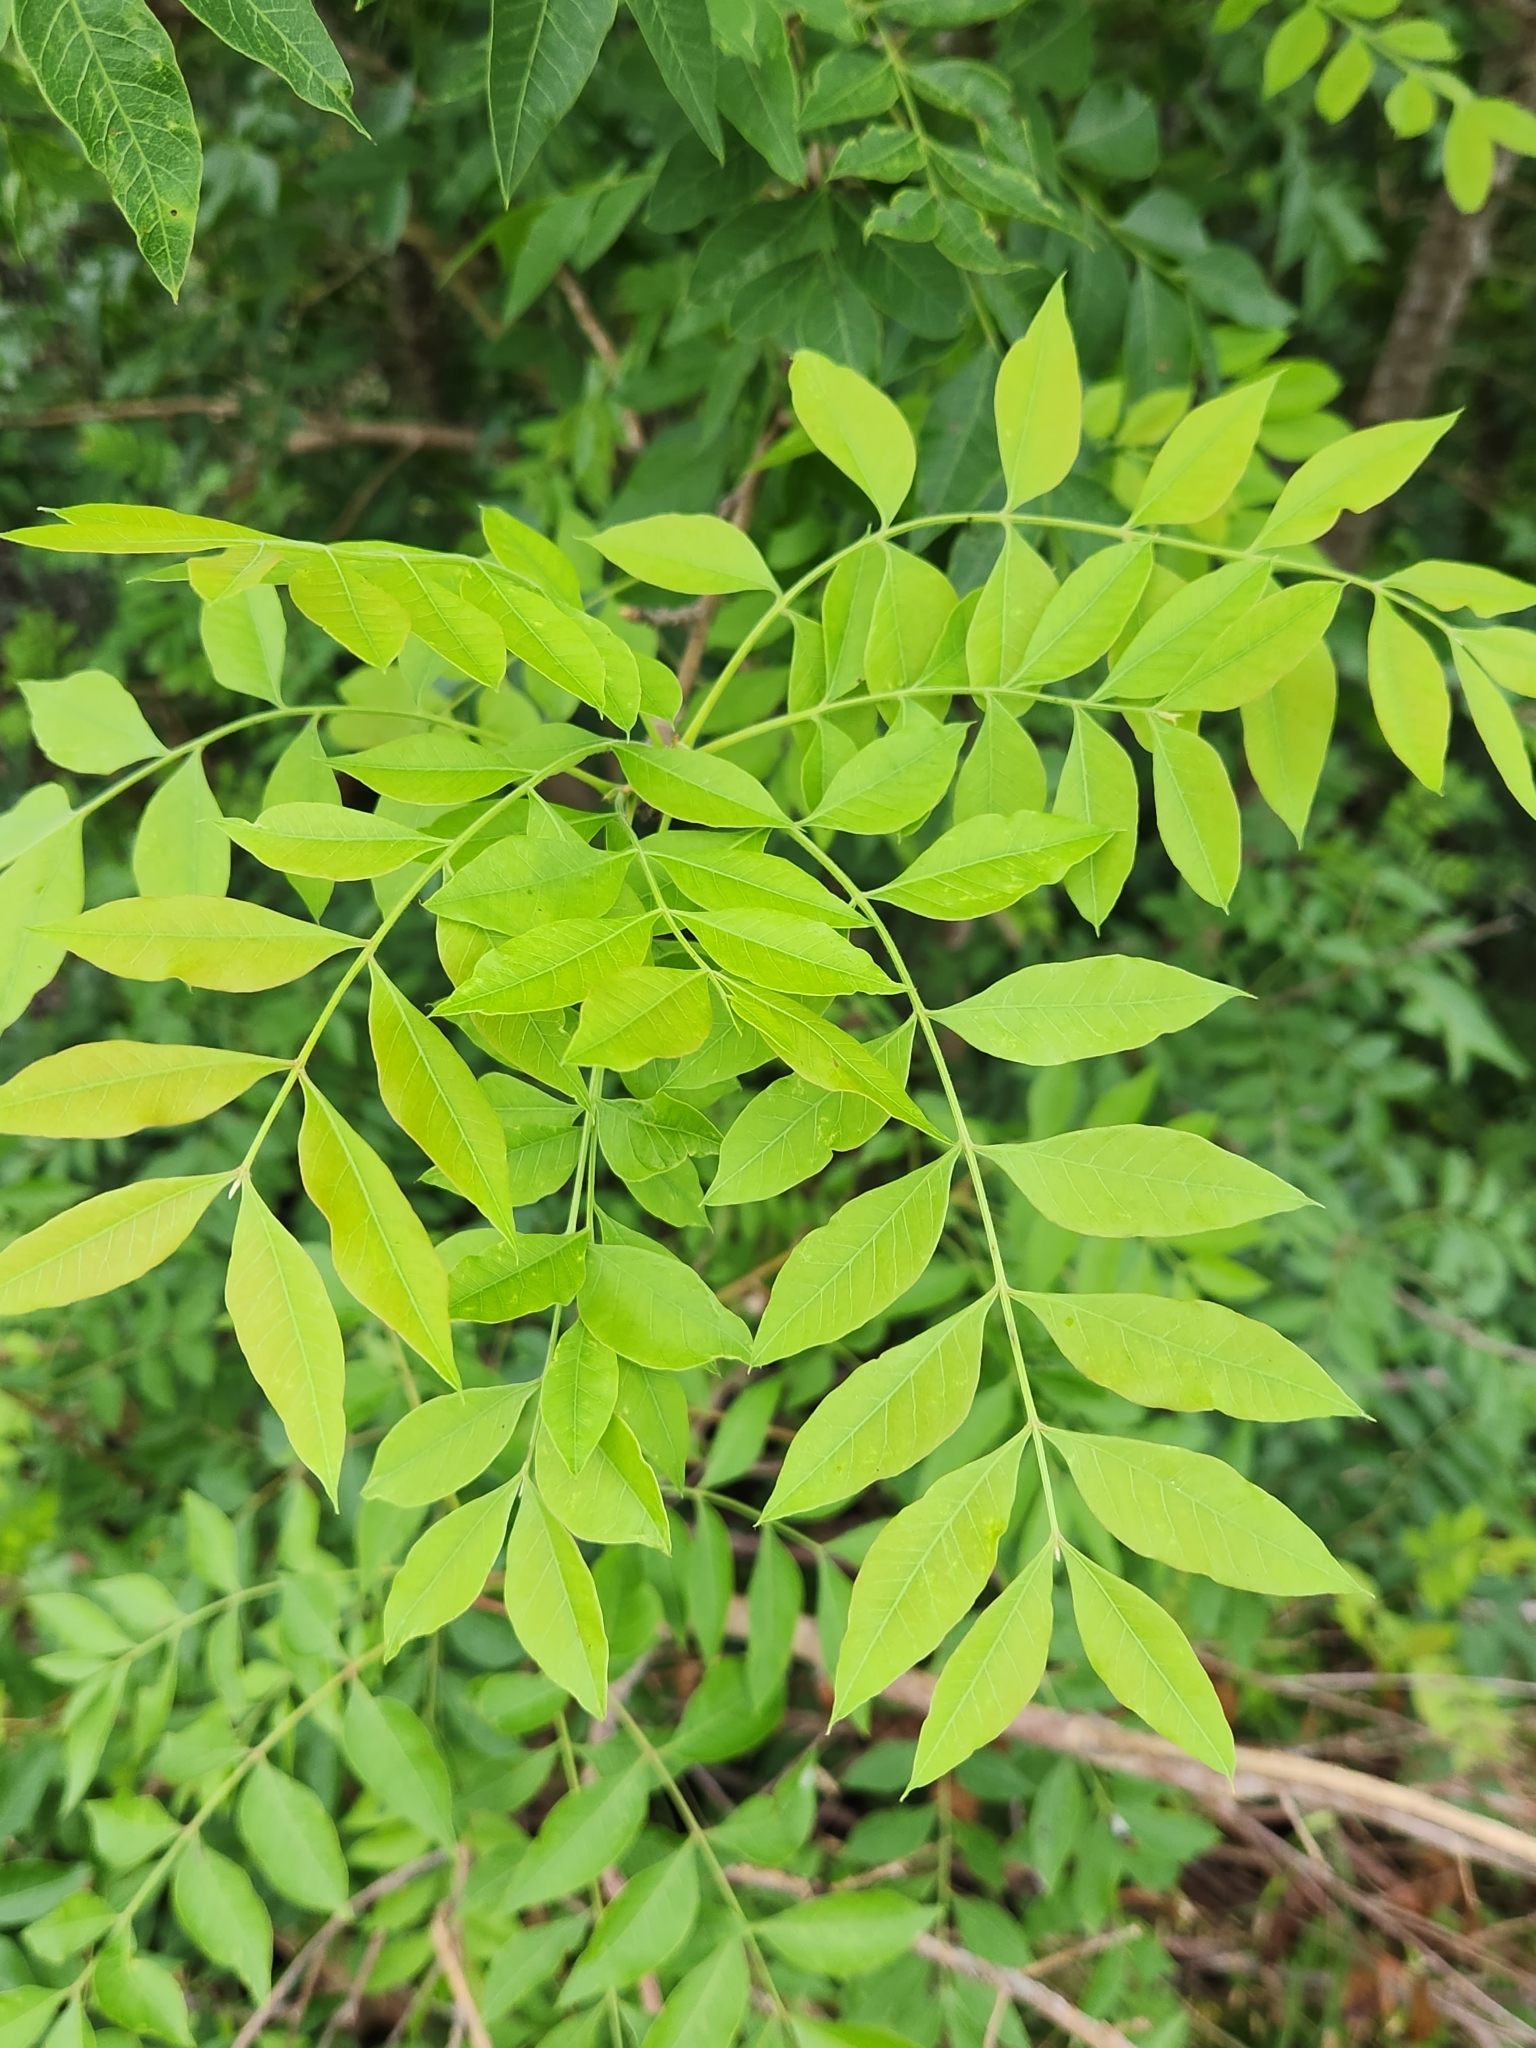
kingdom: Plantae
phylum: Tracheophyta
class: Magnoliopsida
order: Sapindales
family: Anacardiaceae
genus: Pistacia
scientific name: Pistacia chinensis
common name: Chinese pistache
